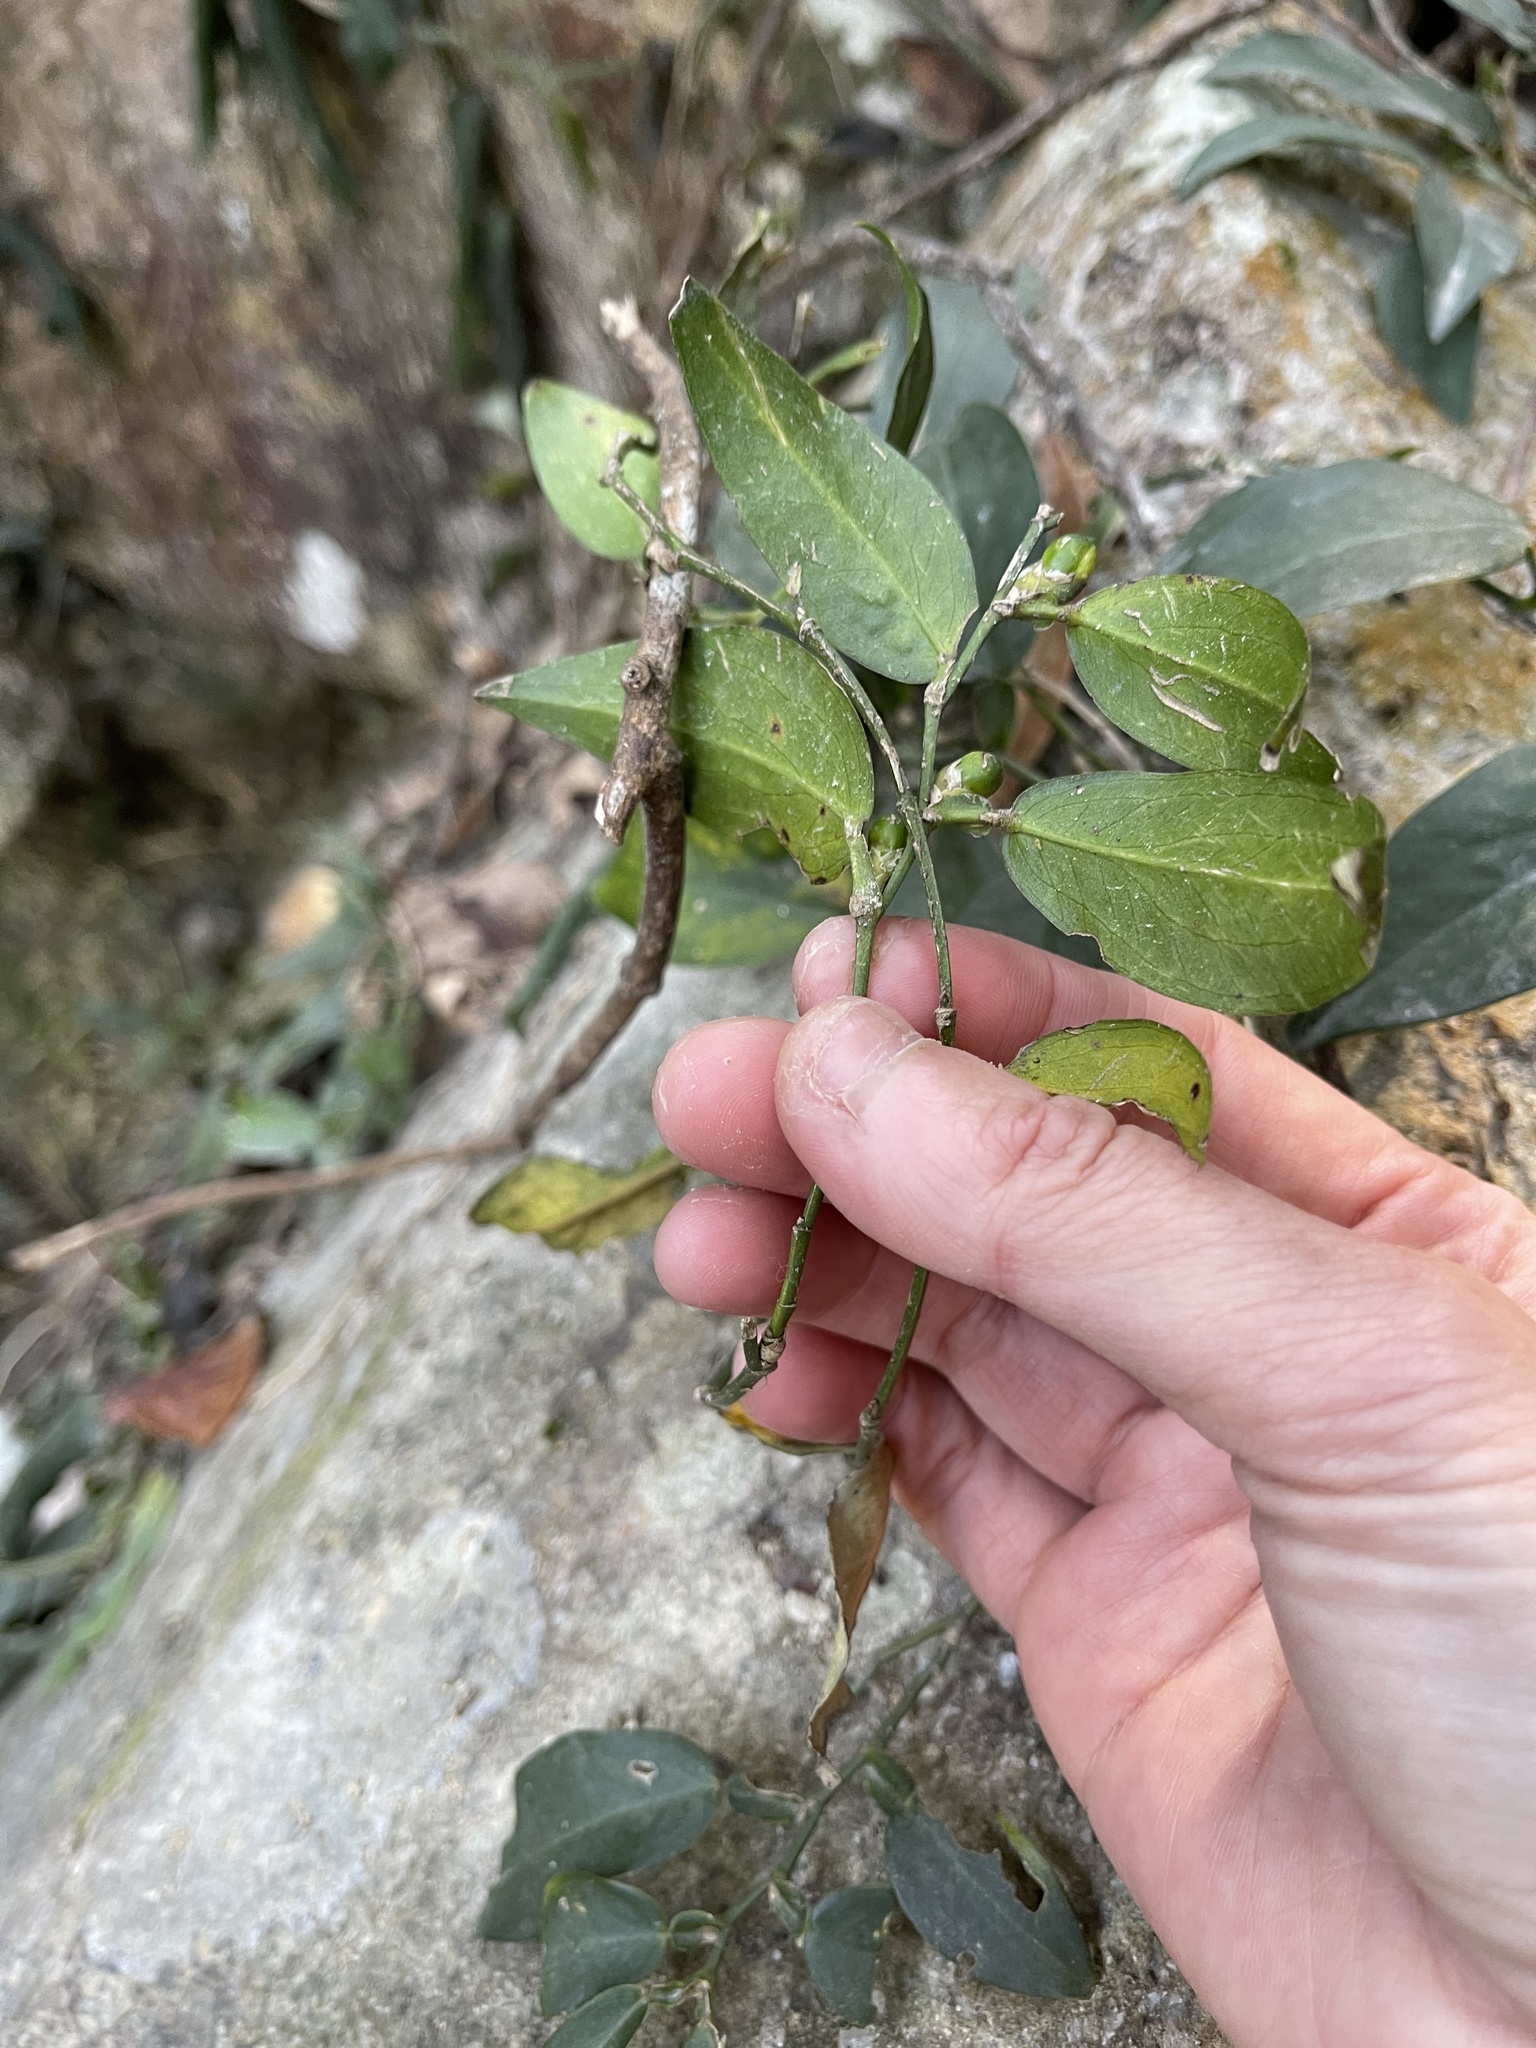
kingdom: Plantae
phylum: Tracheophyta
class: Liliopsida
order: Alismatales
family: Araceae
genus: Pothos
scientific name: Pothos chinensis
